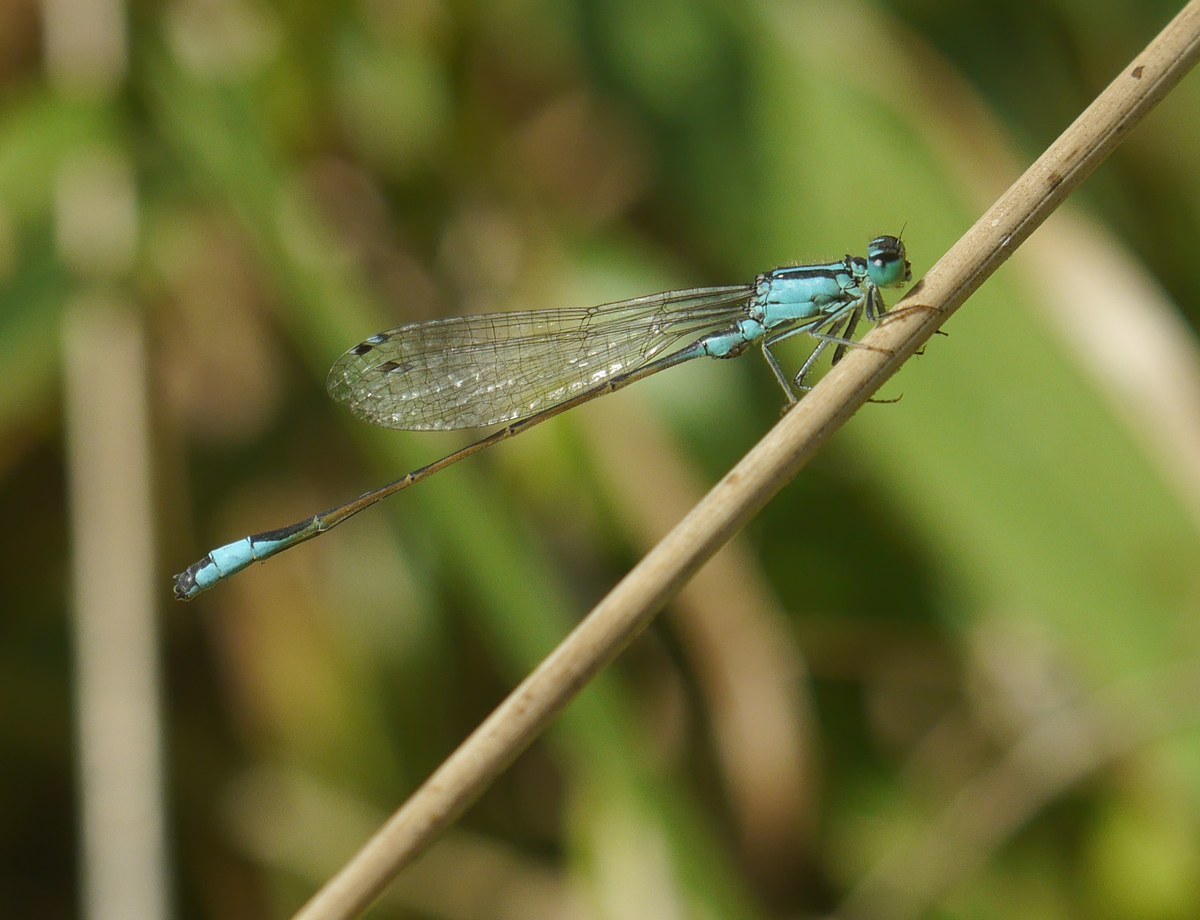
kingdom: Animalia
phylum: Arthropoda
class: Insecta
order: Odonata
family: Coenagrionidae
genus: Ischnura
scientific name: Ischnura elegans
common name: Blue-tailed damselfly
